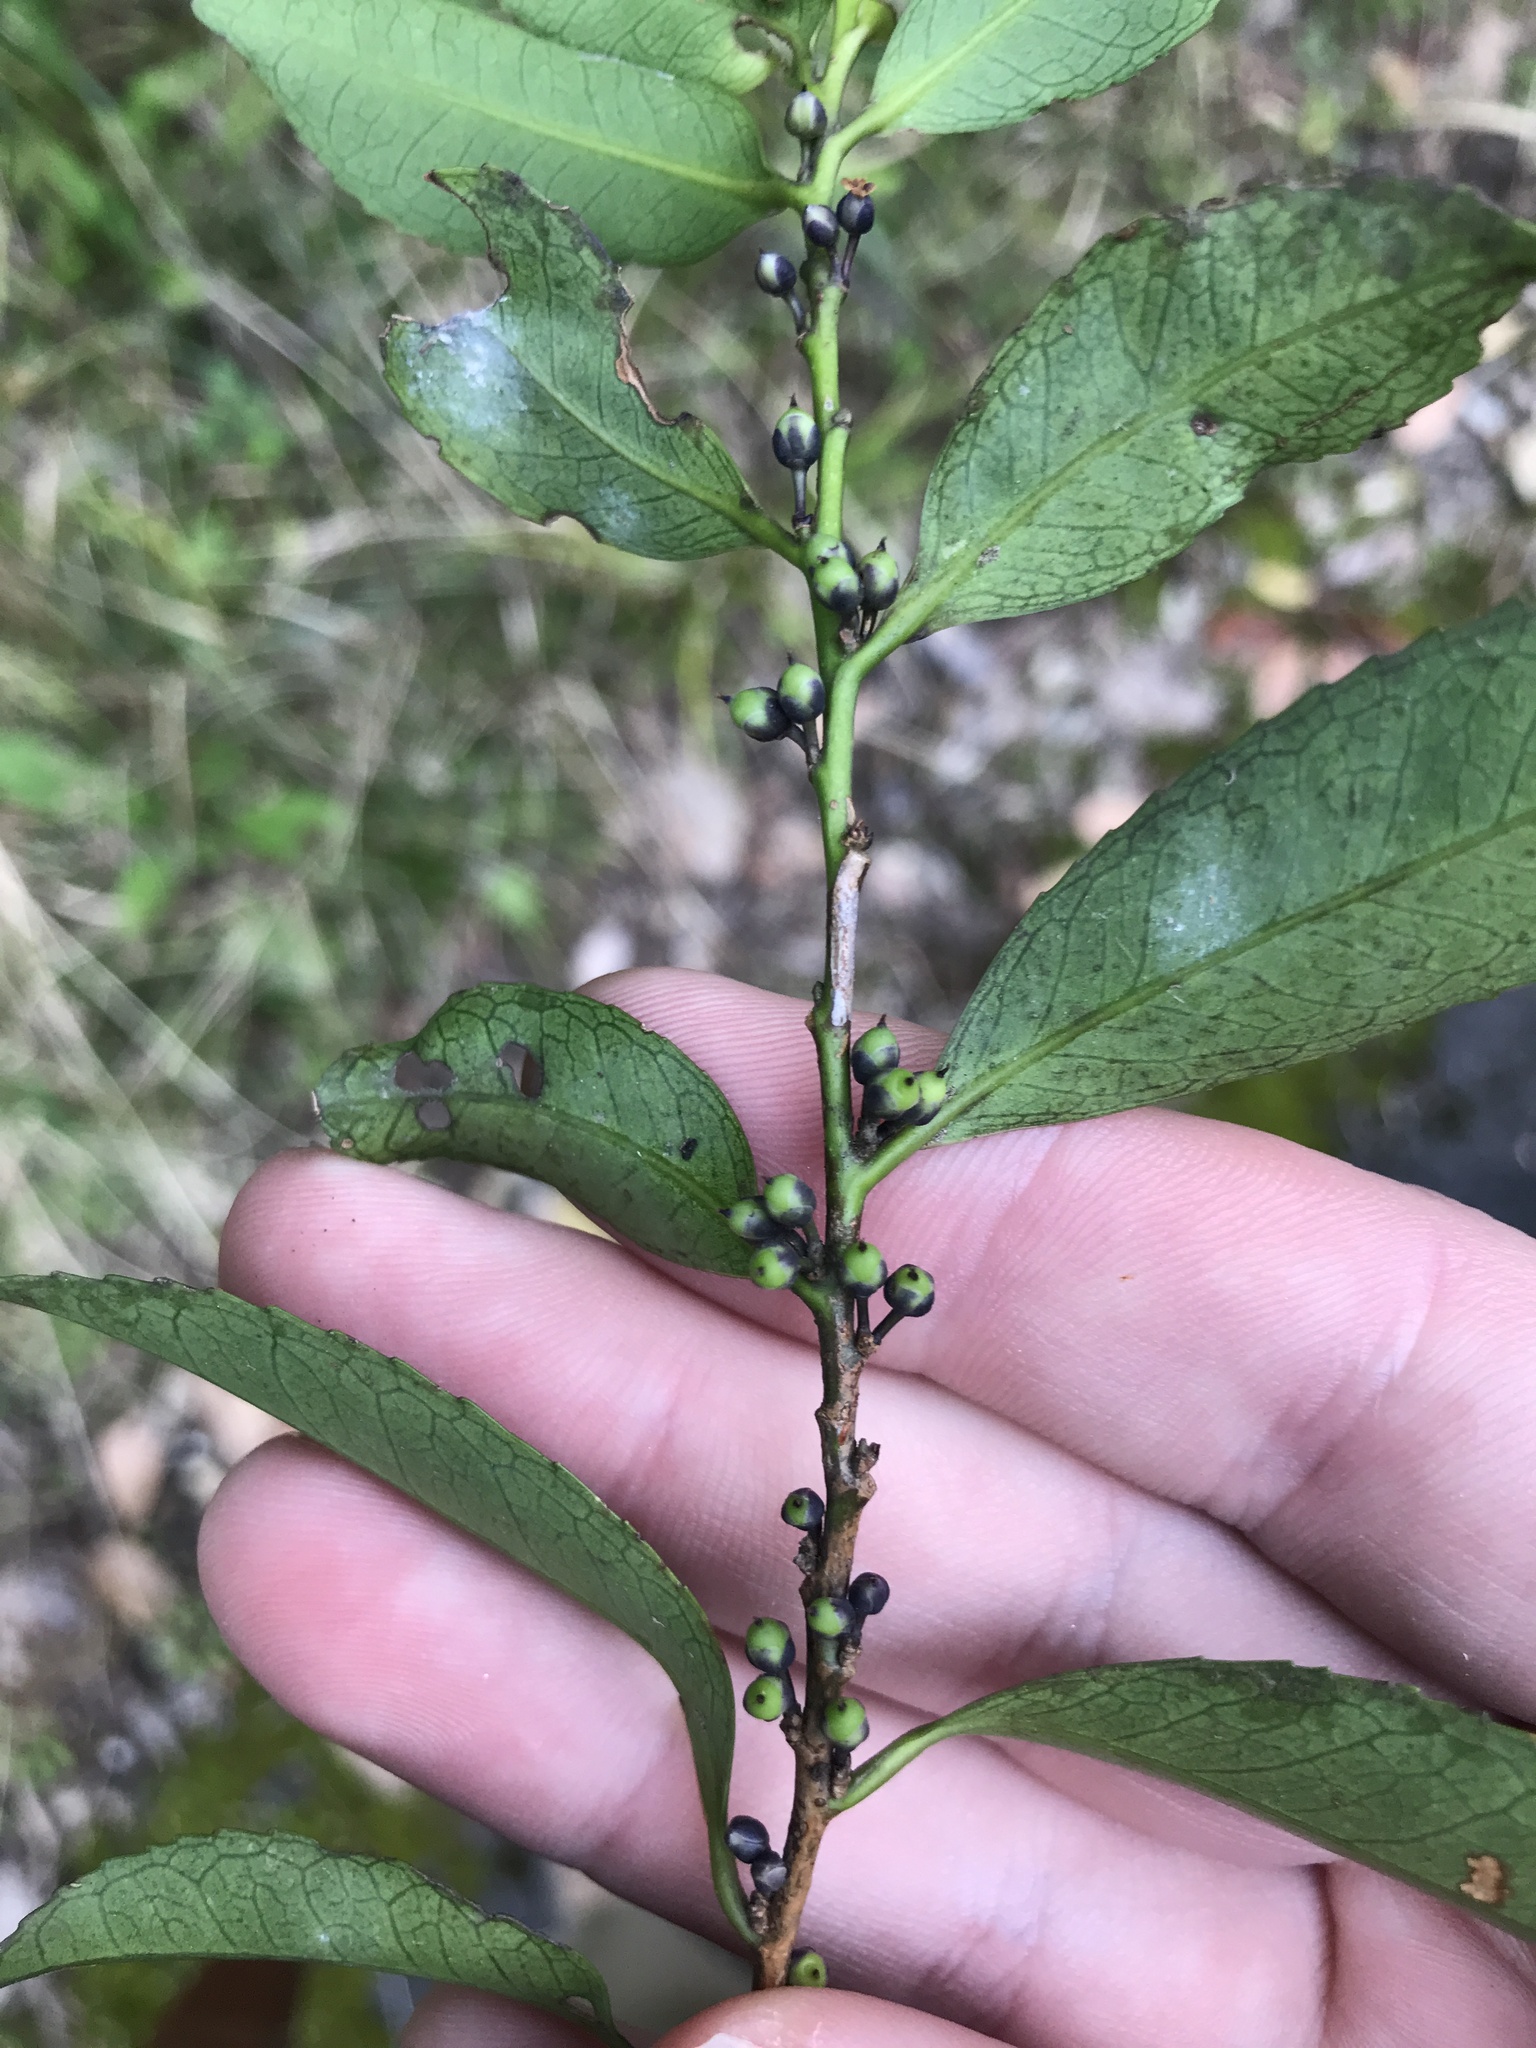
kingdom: Plantae
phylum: Tracheophyta
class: Magnoliopsida
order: Ericales
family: Pentaphylacaceae
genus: Eurya
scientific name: Eurya japonica
